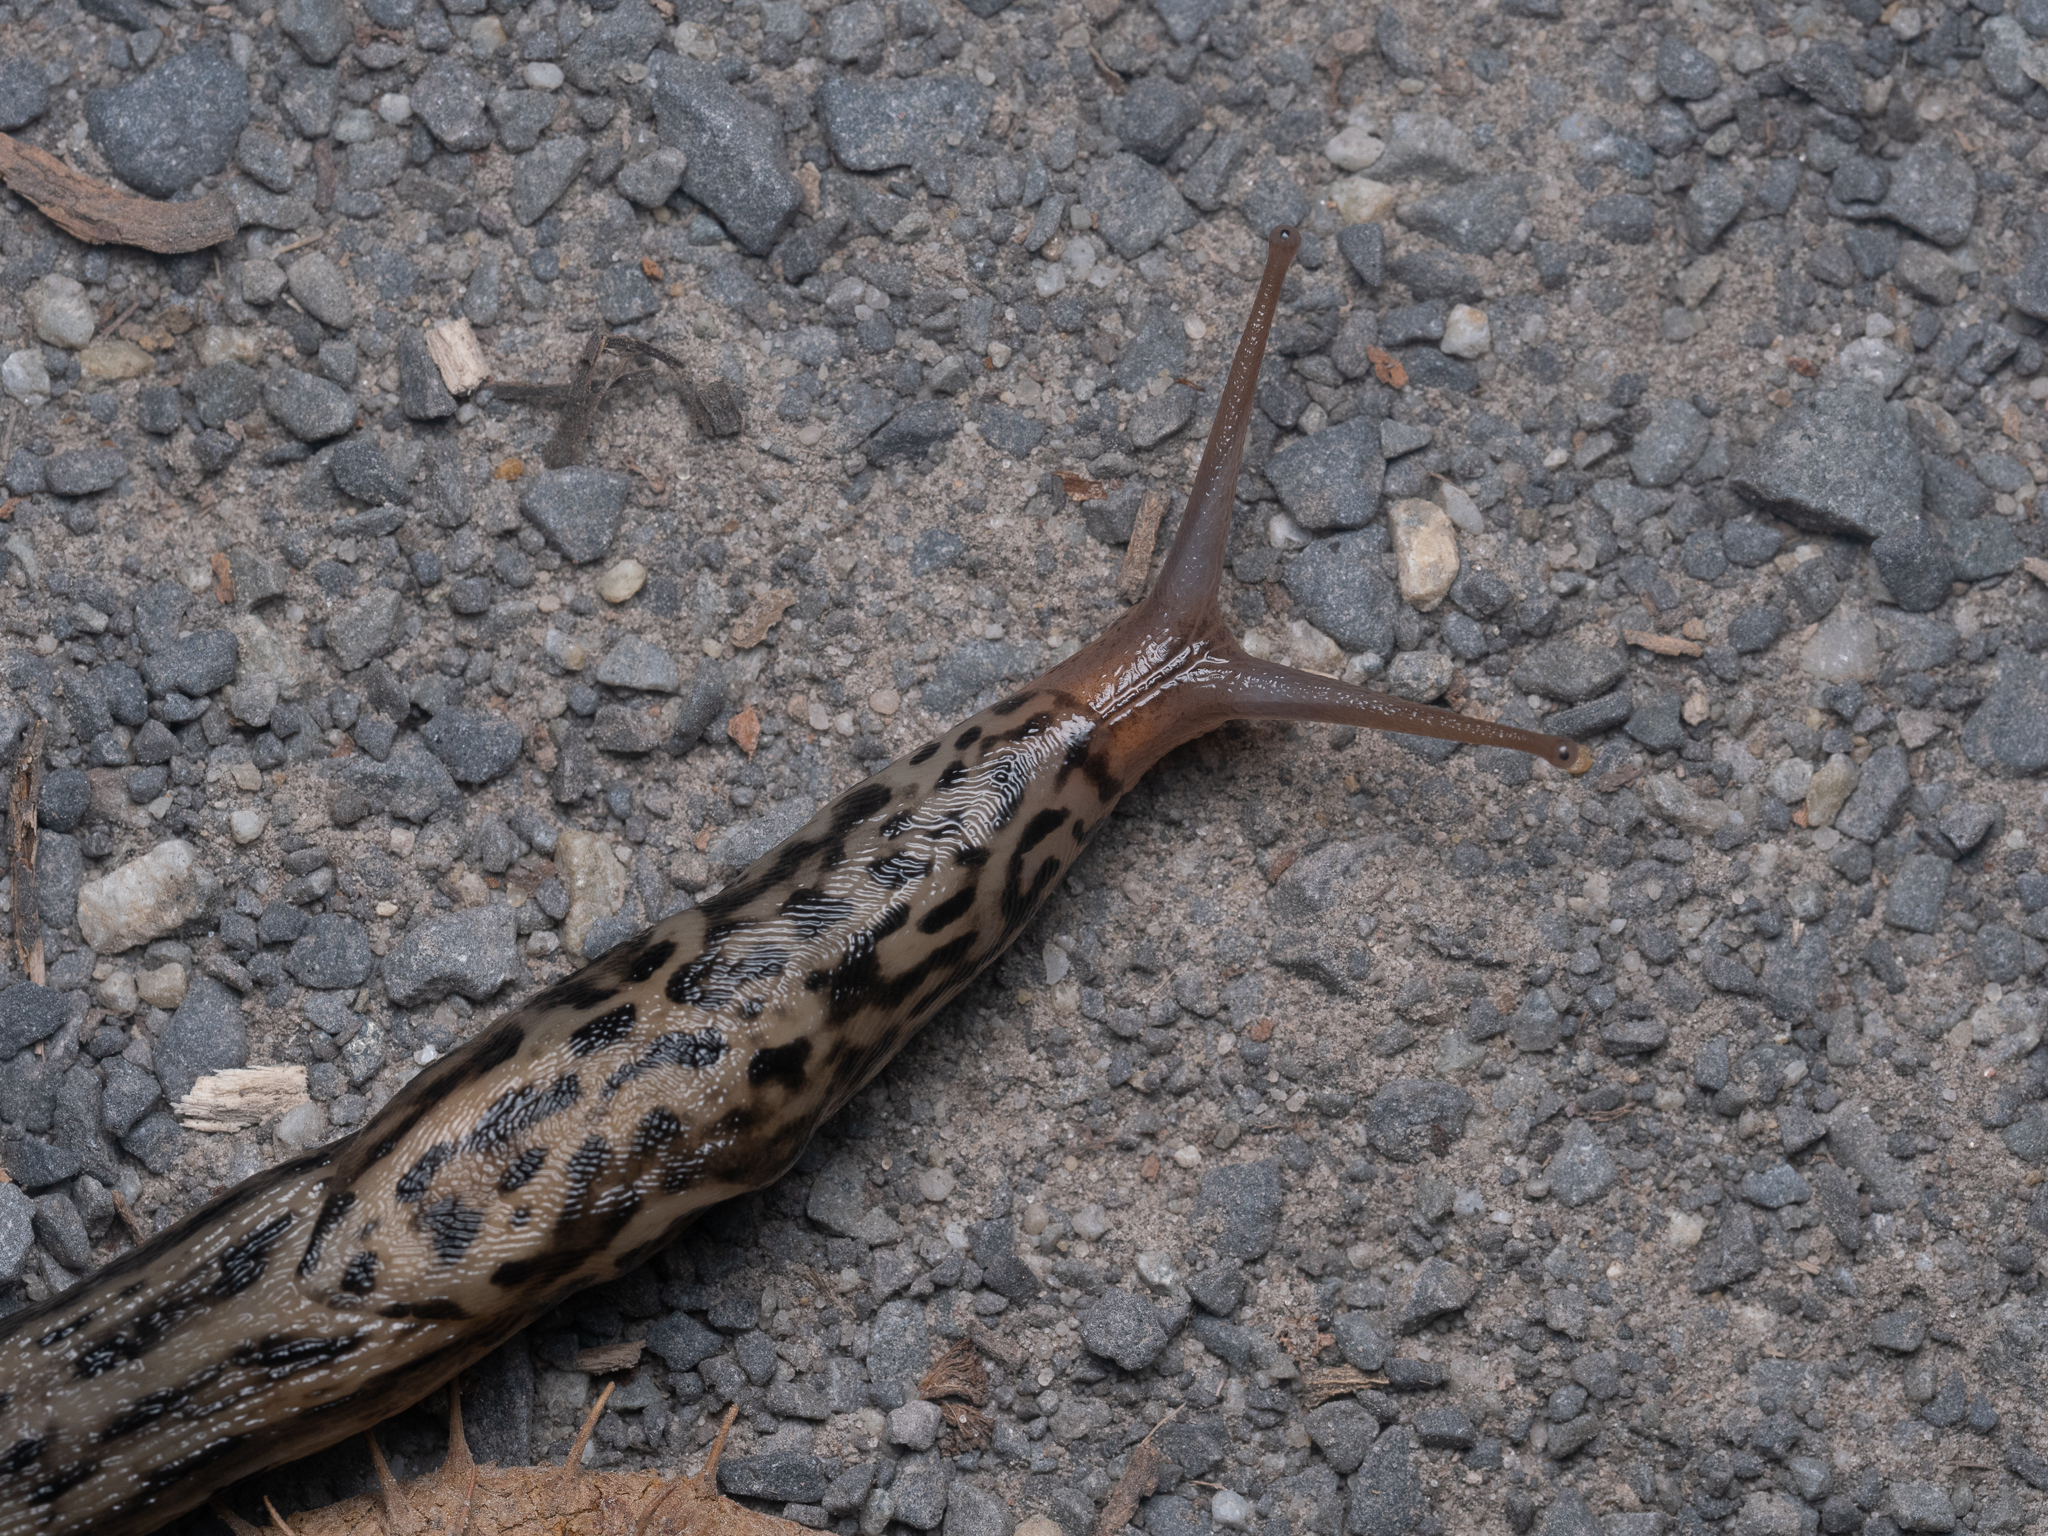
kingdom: Animalia
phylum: Mollusca
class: Gastropoda
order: Stylommatophora
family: Limacidae
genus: Limax
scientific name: Limax maximus
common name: Great grey slug
